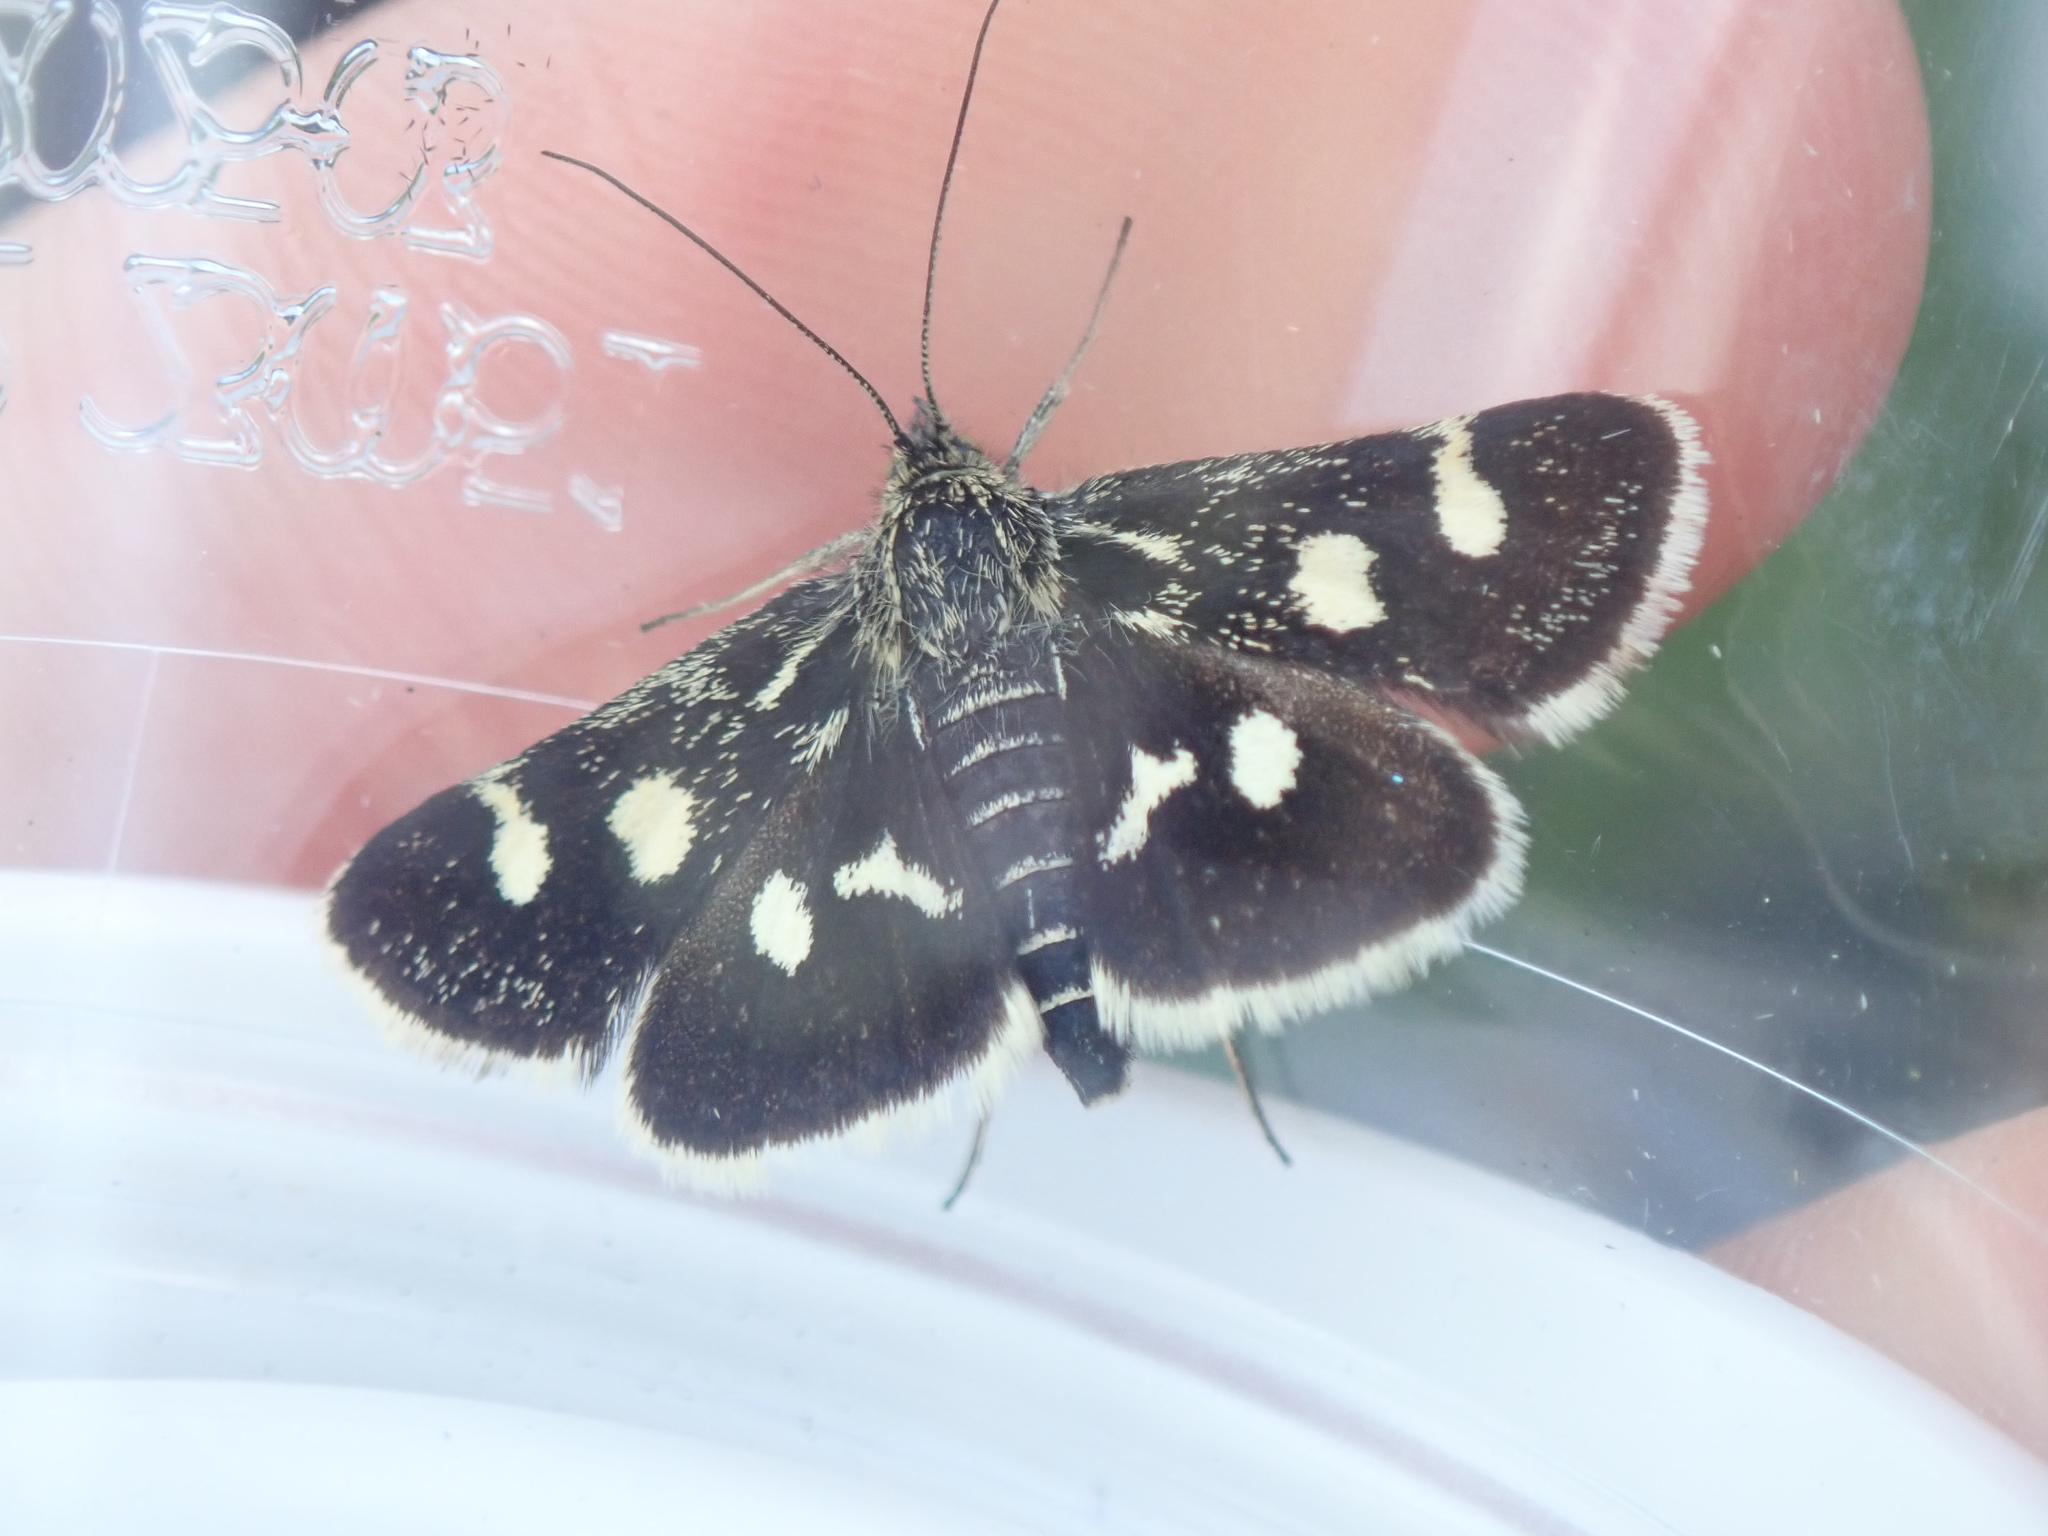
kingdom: Animalia
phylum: Arthropoda
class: Insecta
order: Lepidoptera
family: Crambidae
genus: Eurrhypis
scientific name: Eurrhypis pollinalis
